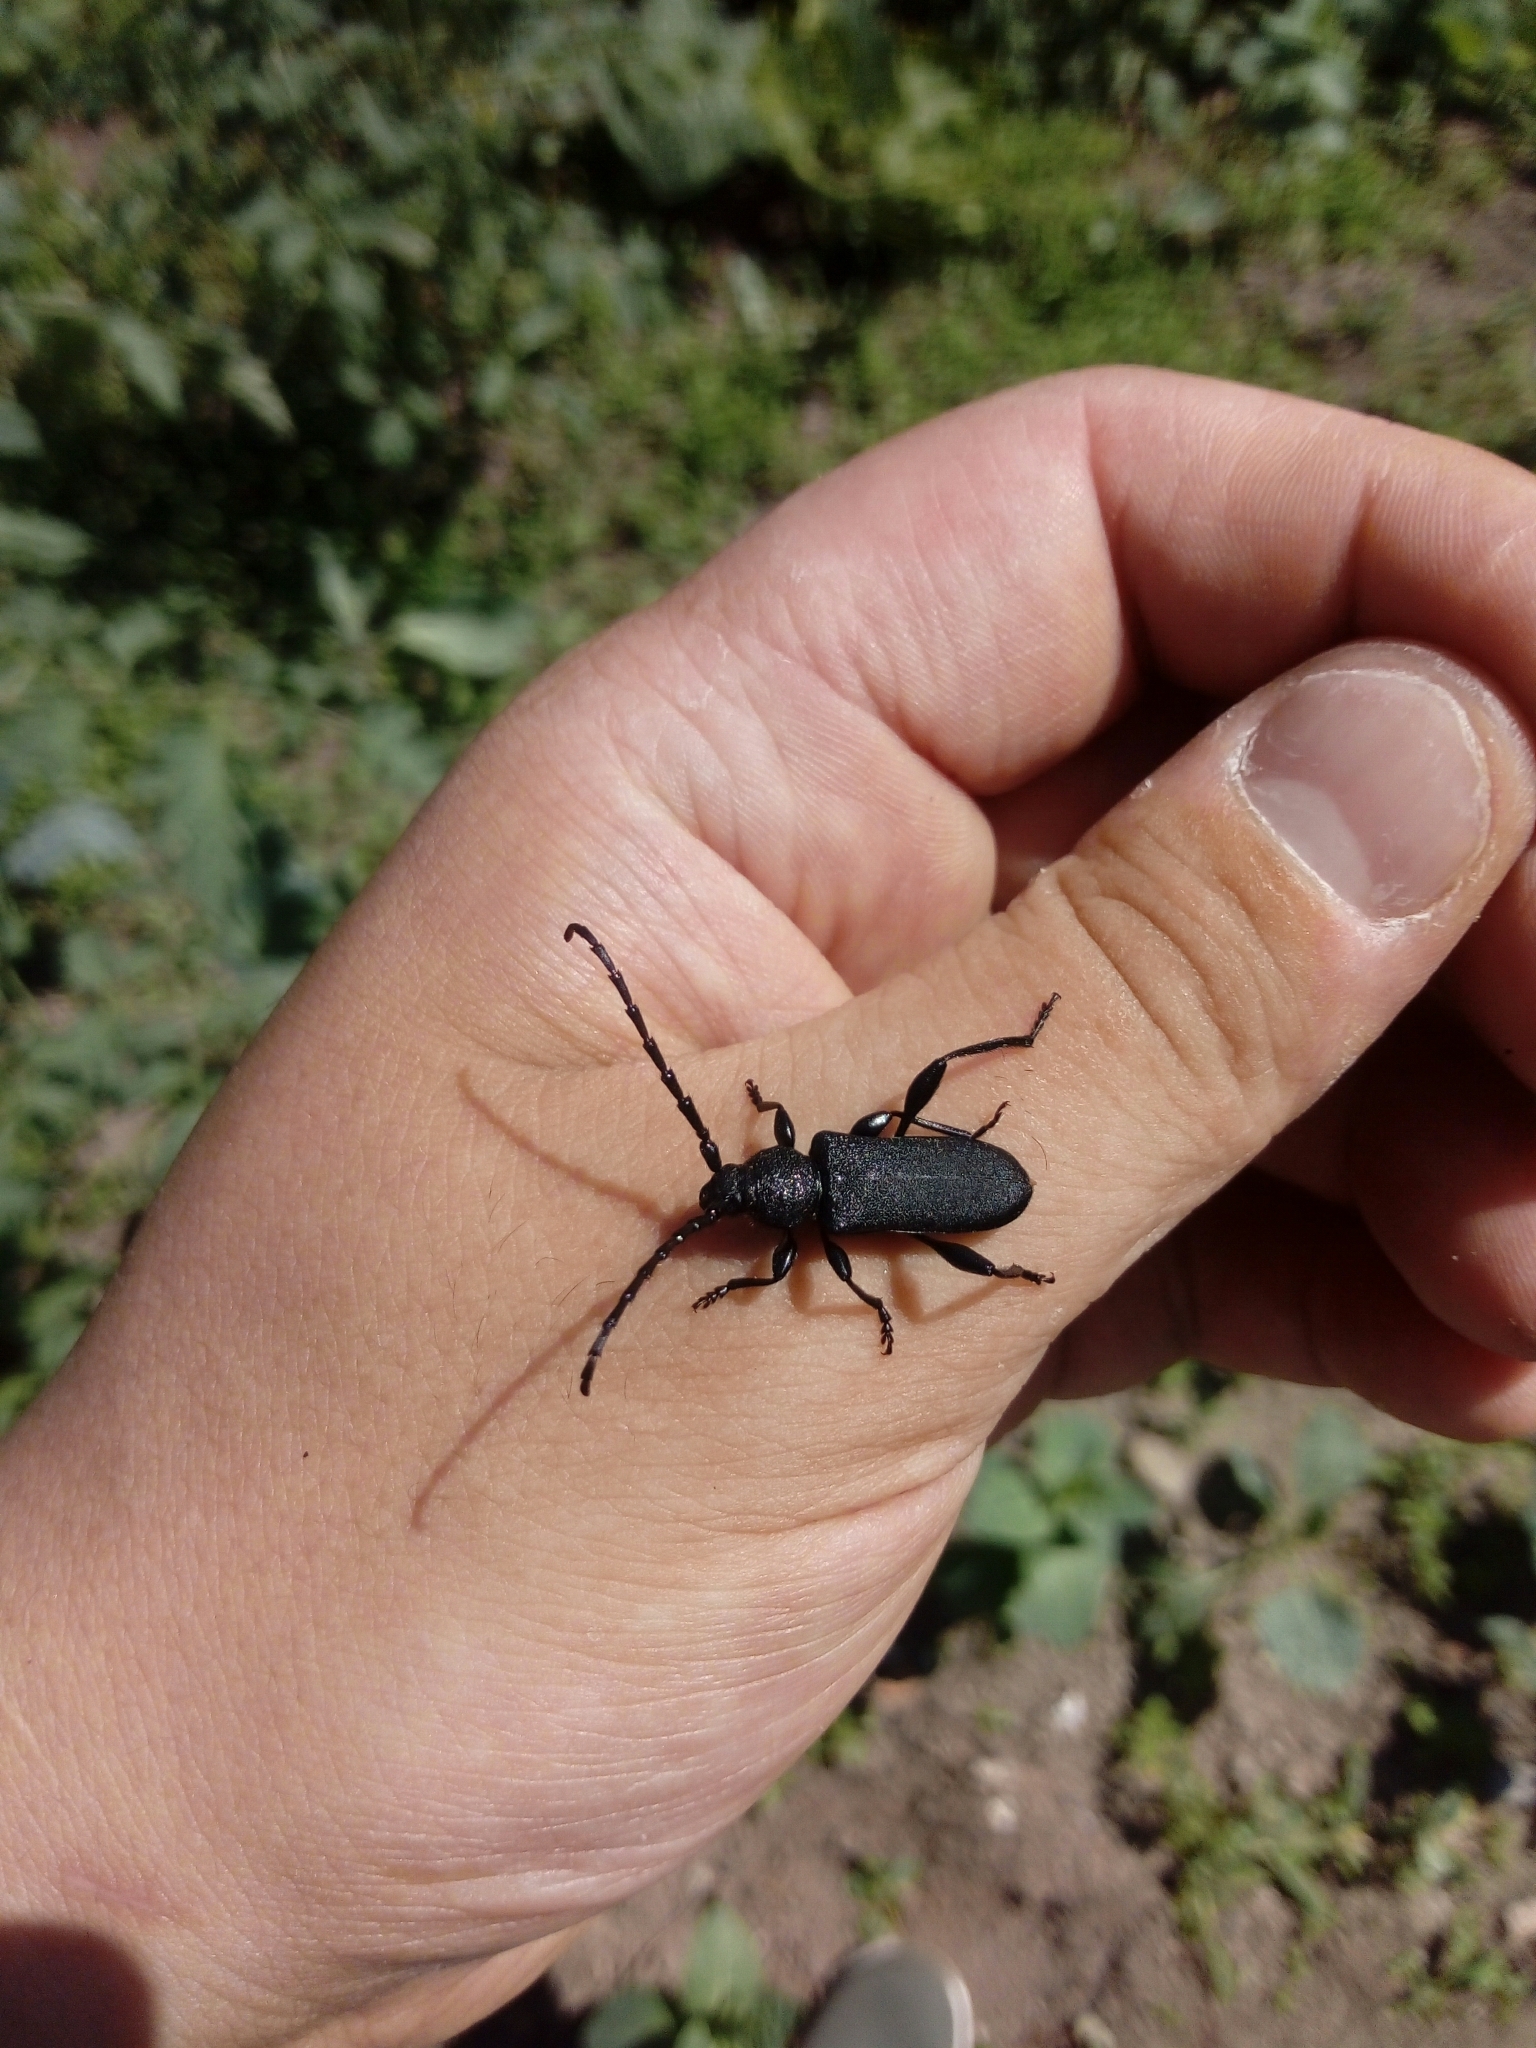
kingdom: Animalia
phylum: Arthropoda
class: Insecta
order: Coleoptera
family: Cerambycidae
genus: Ropalopus
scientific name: Ropalopus clavipes
